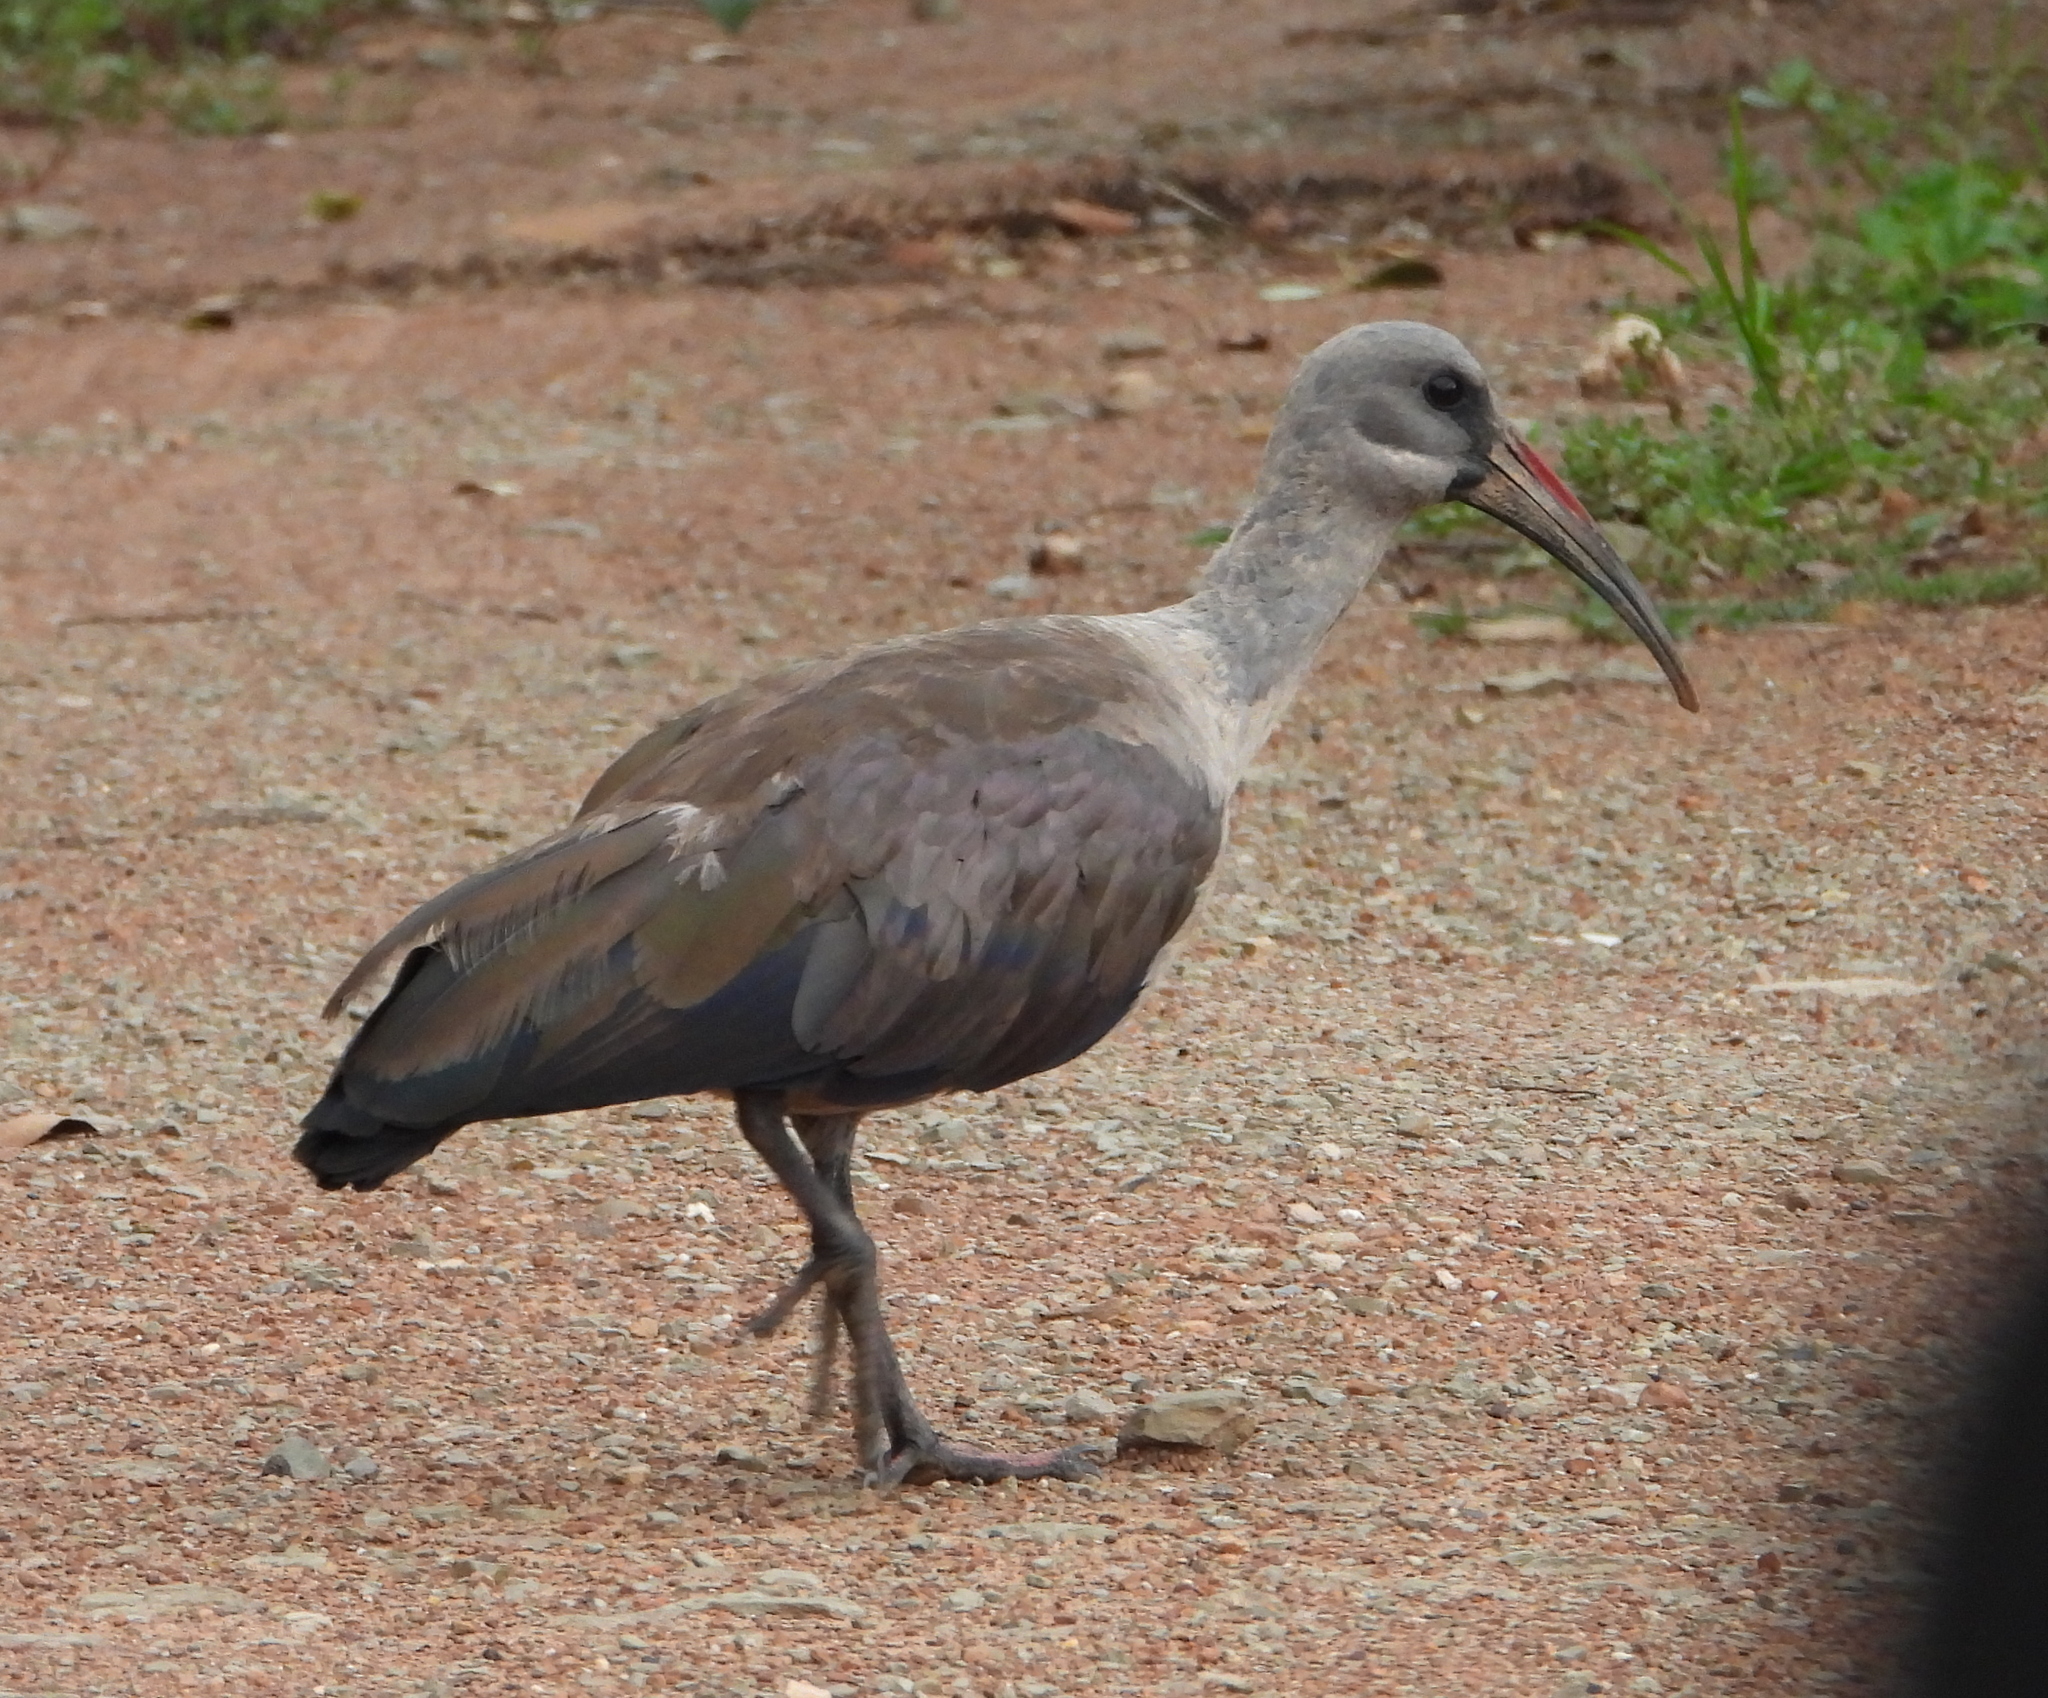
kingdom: Animalia
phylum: Chordata
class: Aves
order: Pelecaniformes
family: Threskiornithidae
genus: Bostrychia
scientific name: Bostrychia hagedash
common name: Hadada ibis
